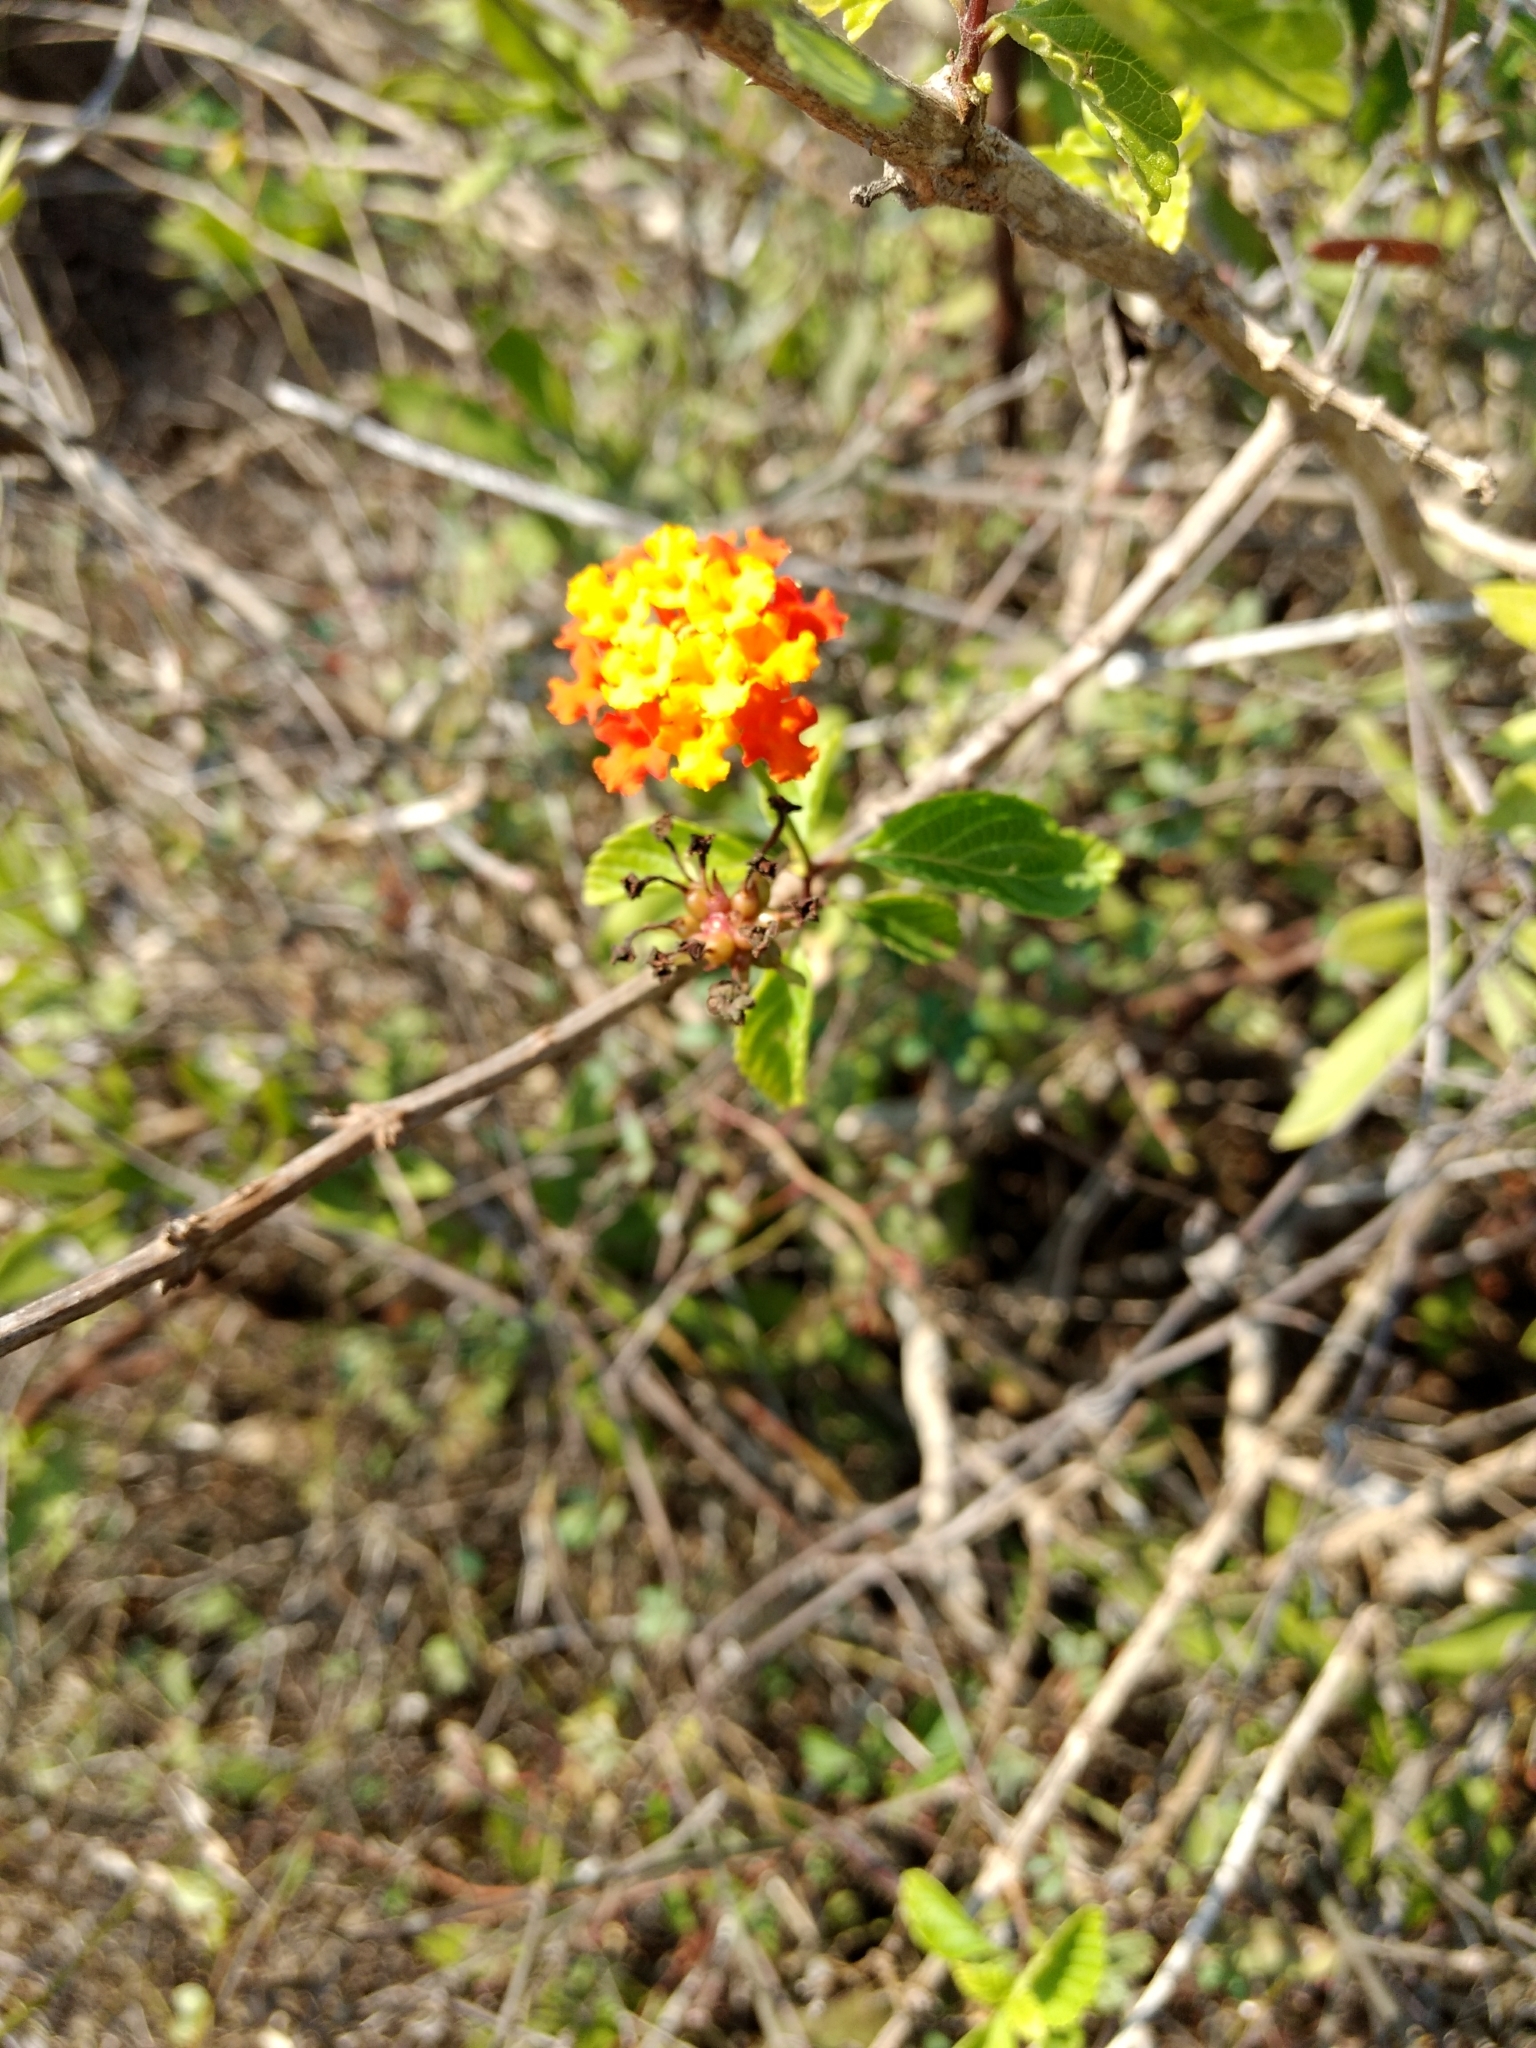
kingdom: Plantae
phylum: Tracheophyta
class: Magnoliopsida
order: Lamiales
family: Verbenaceae
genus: Lantana
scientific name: Lantana camara
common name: Lantana
